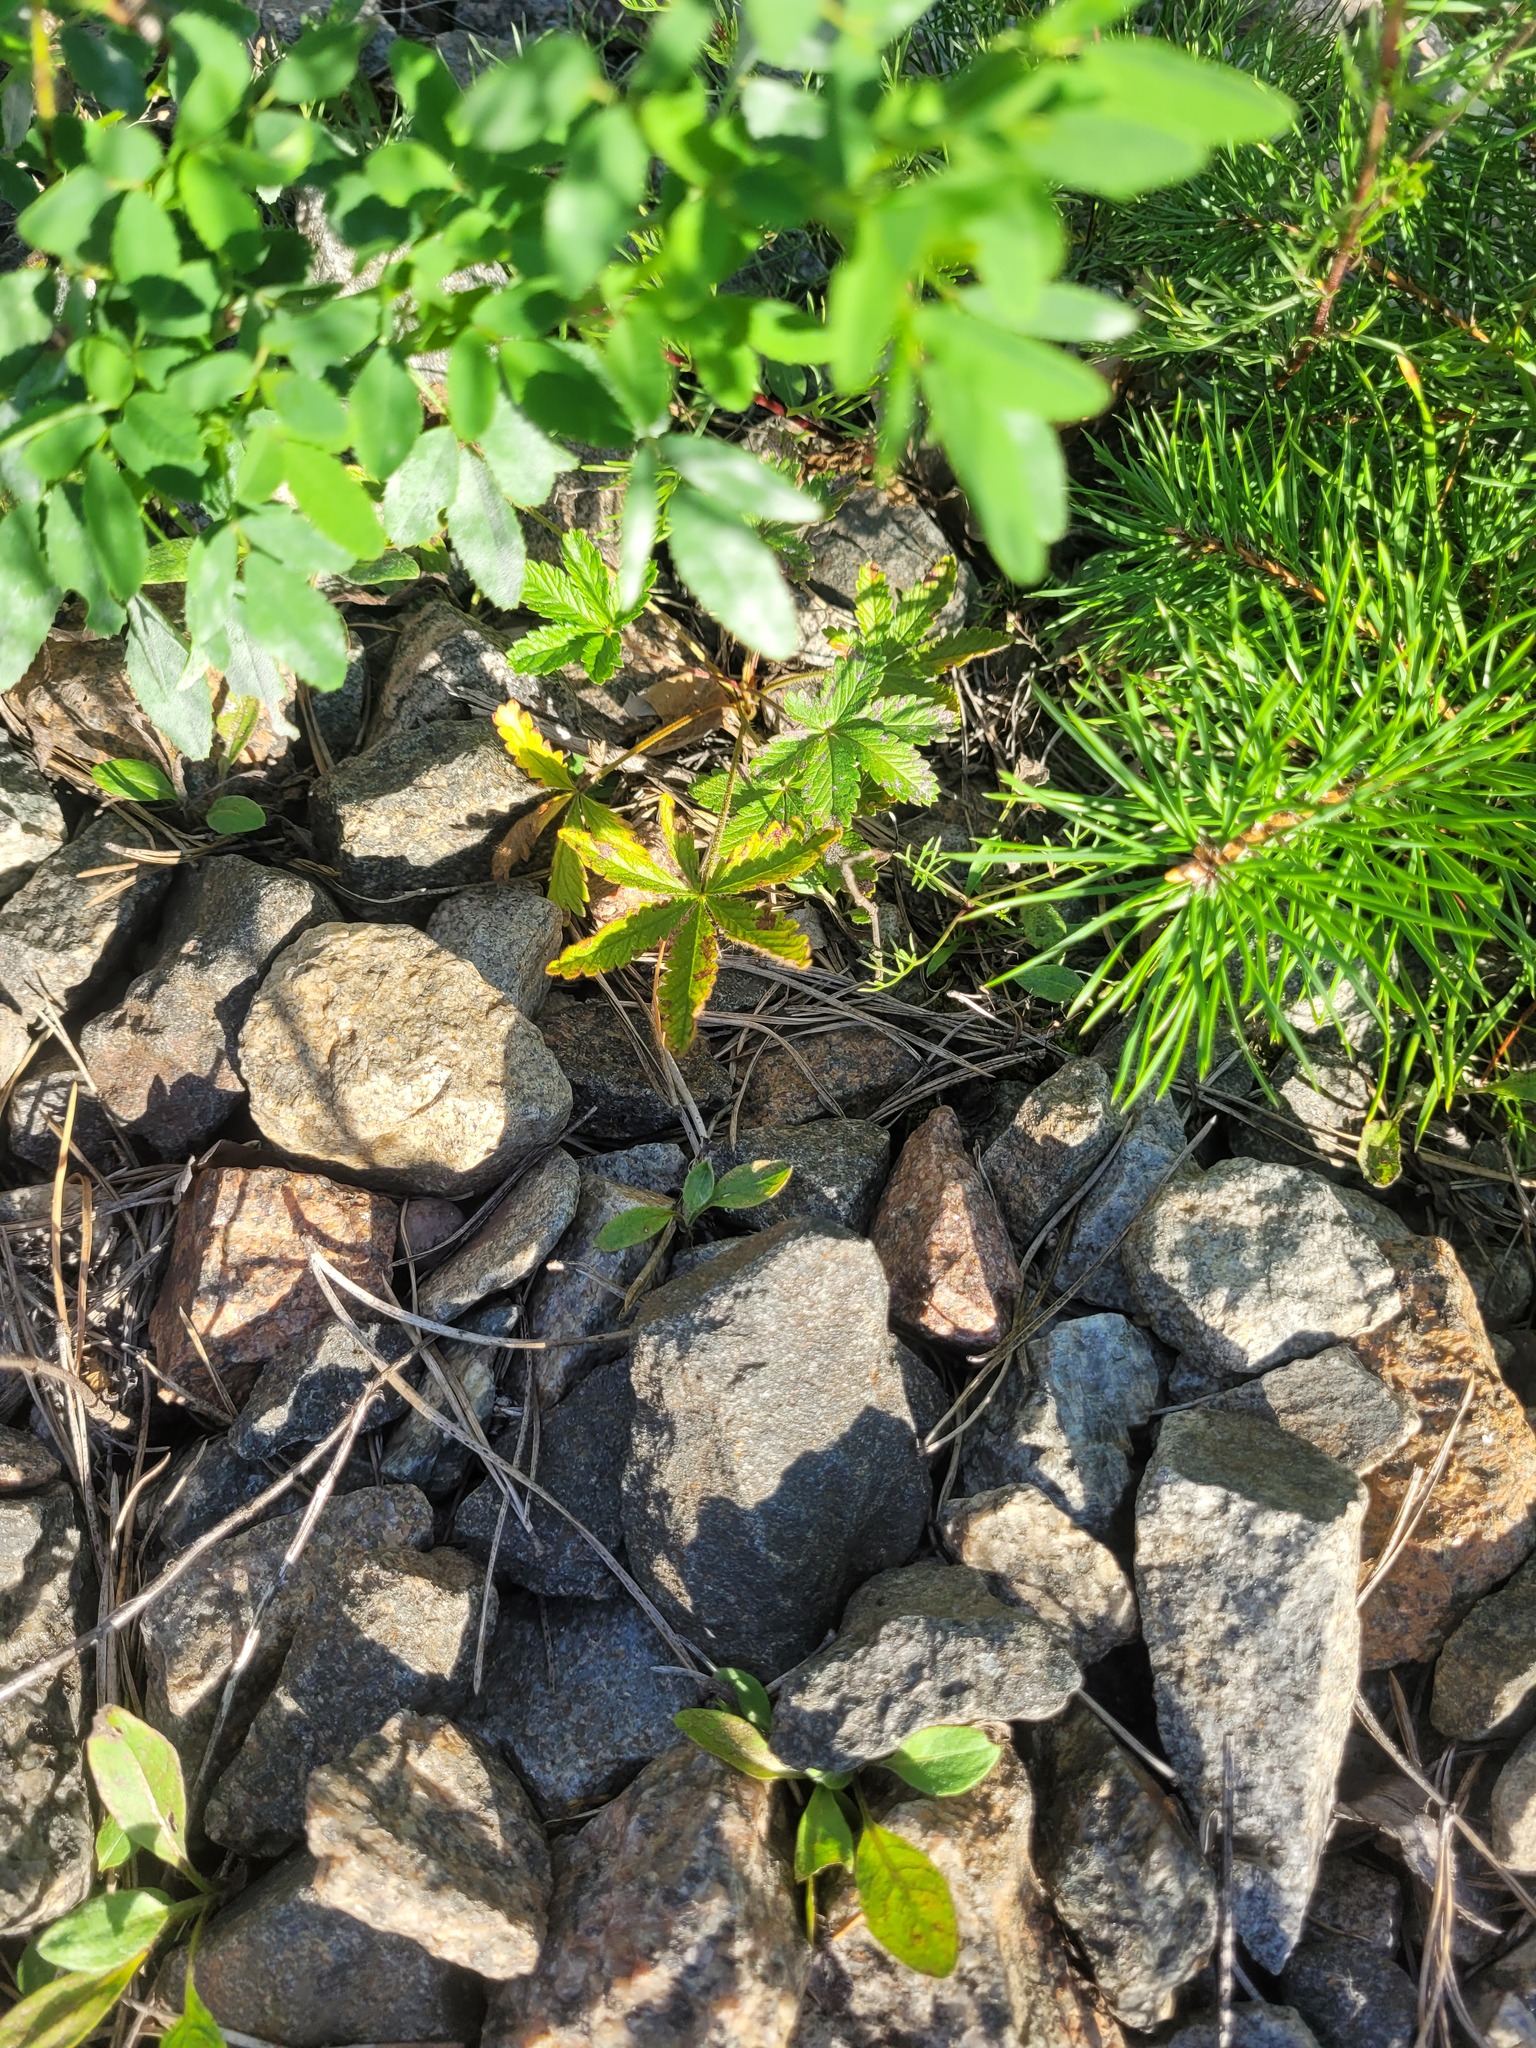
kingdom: Plantae
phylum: Tracheophyta
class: Magnoliopsida
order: Rosales
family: Rosaceae
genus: Potentilla
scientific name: Potentilla thuringiaca
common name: European cinquefoil
